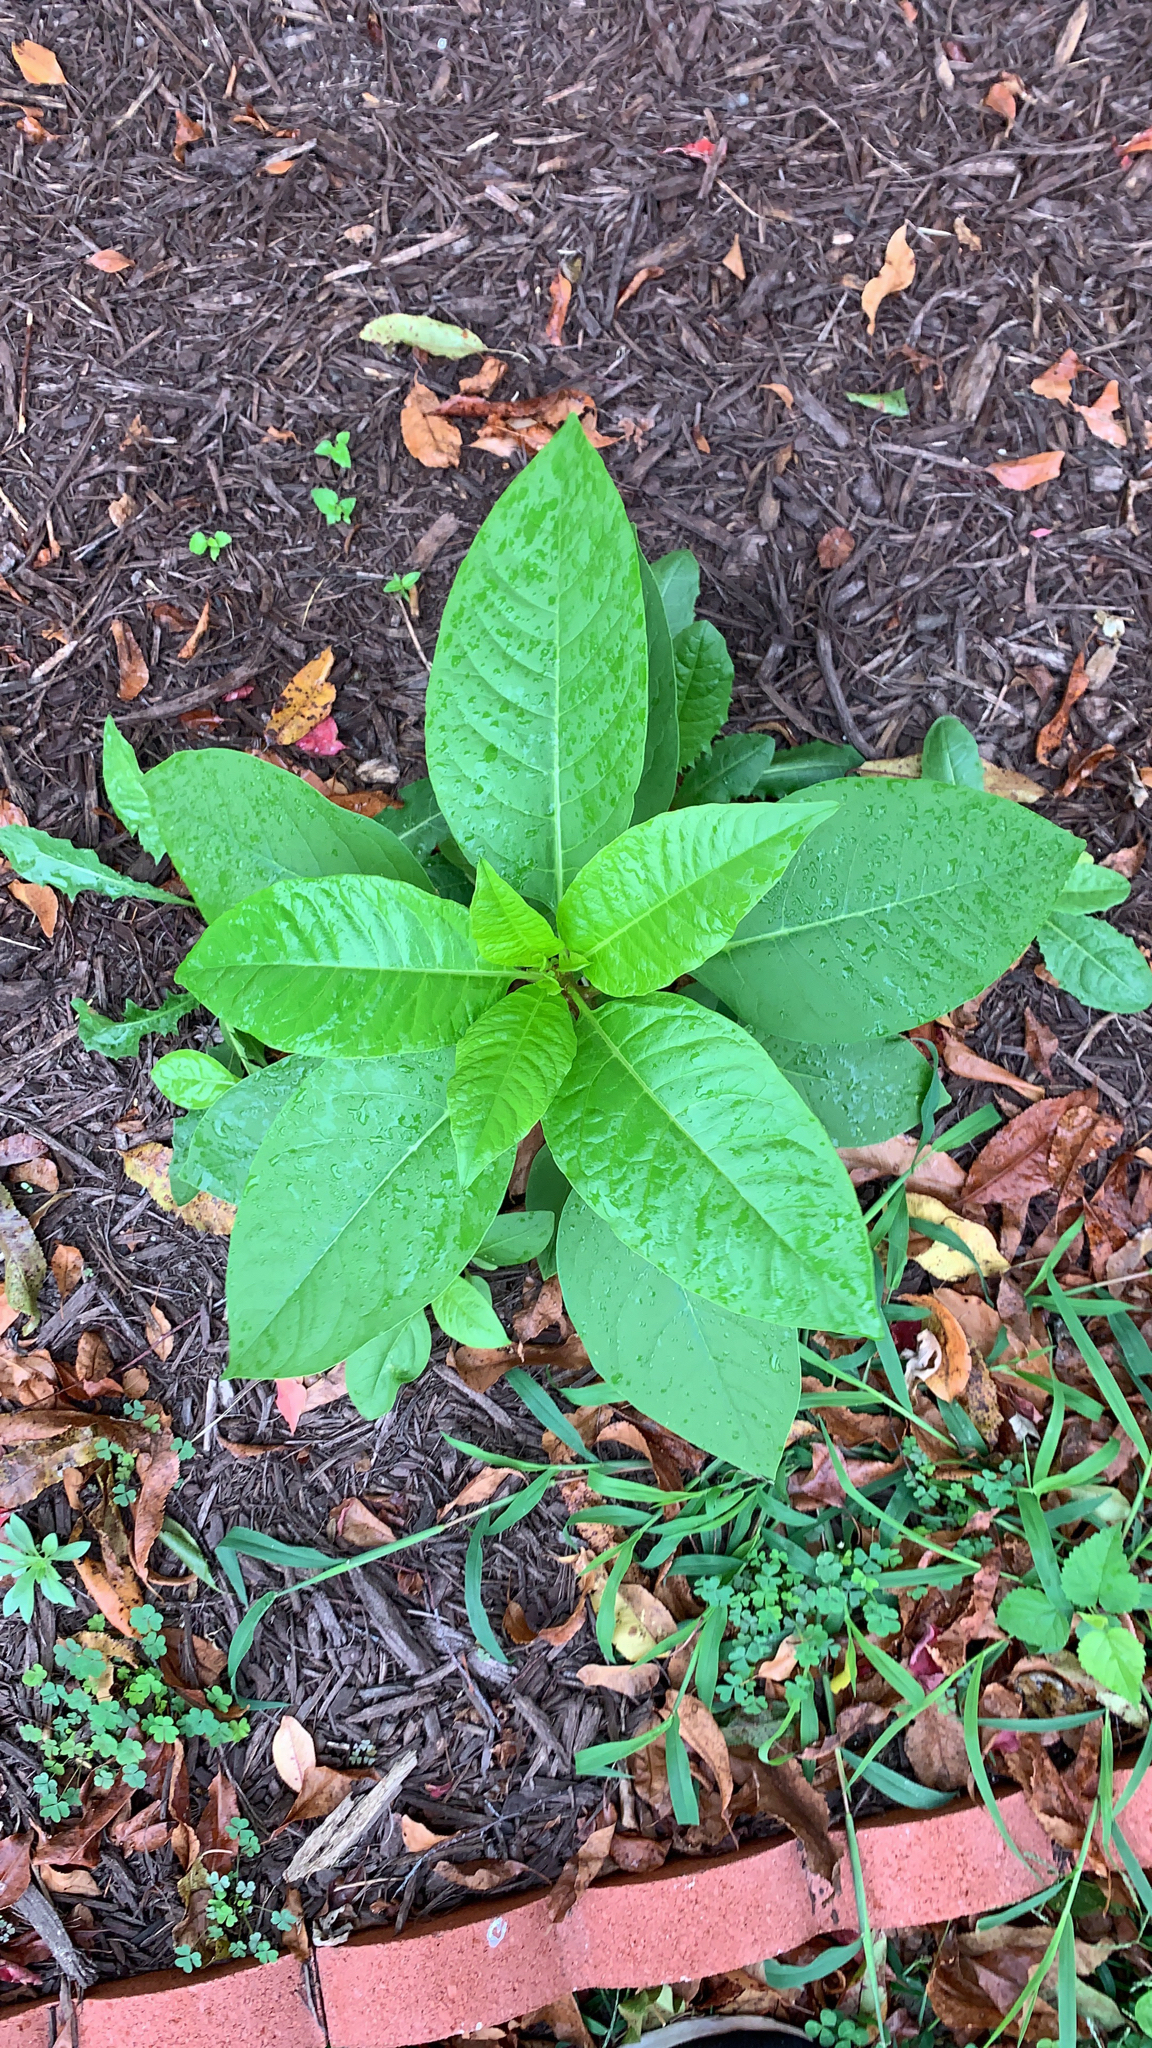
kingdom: Plantae
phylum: Tracheophyta
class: Magnoliopsida
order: Caryophyllales
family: Phytolaccaceae
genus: Phytolacca
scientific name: Phytolacca americana
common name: American pokeweed
